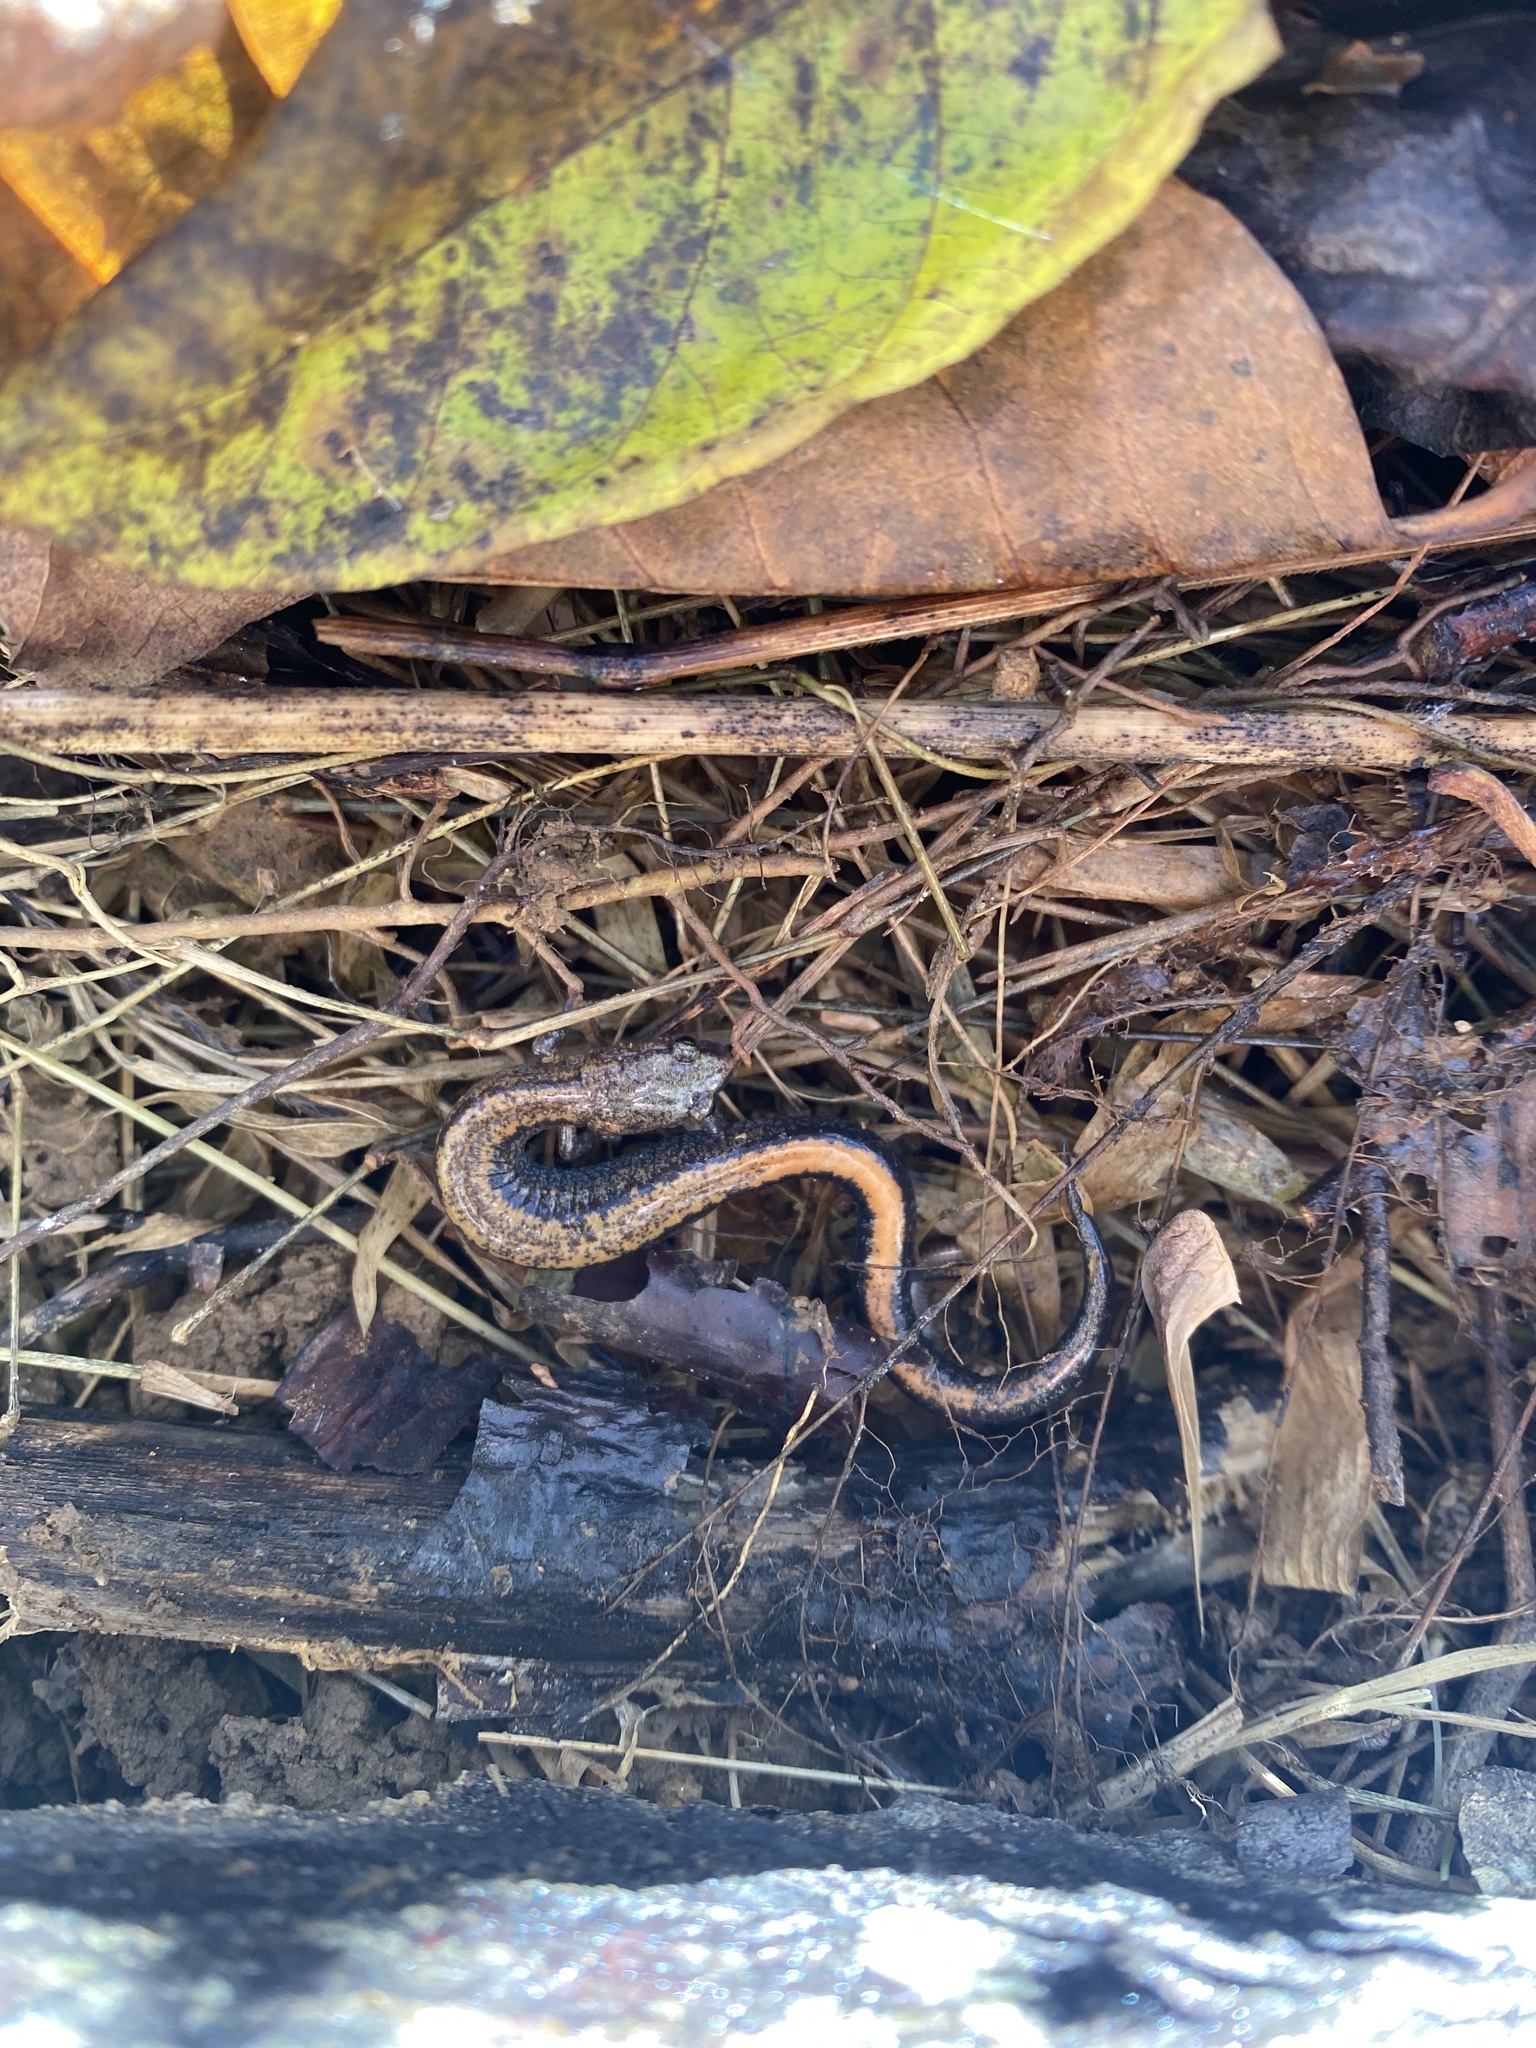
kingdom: Animalia
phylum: Chordata
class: Amphibia
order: Caudata
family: Plethodontidae
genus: Plethodon
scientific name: Plethodon cinereus
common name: Redback salamander
